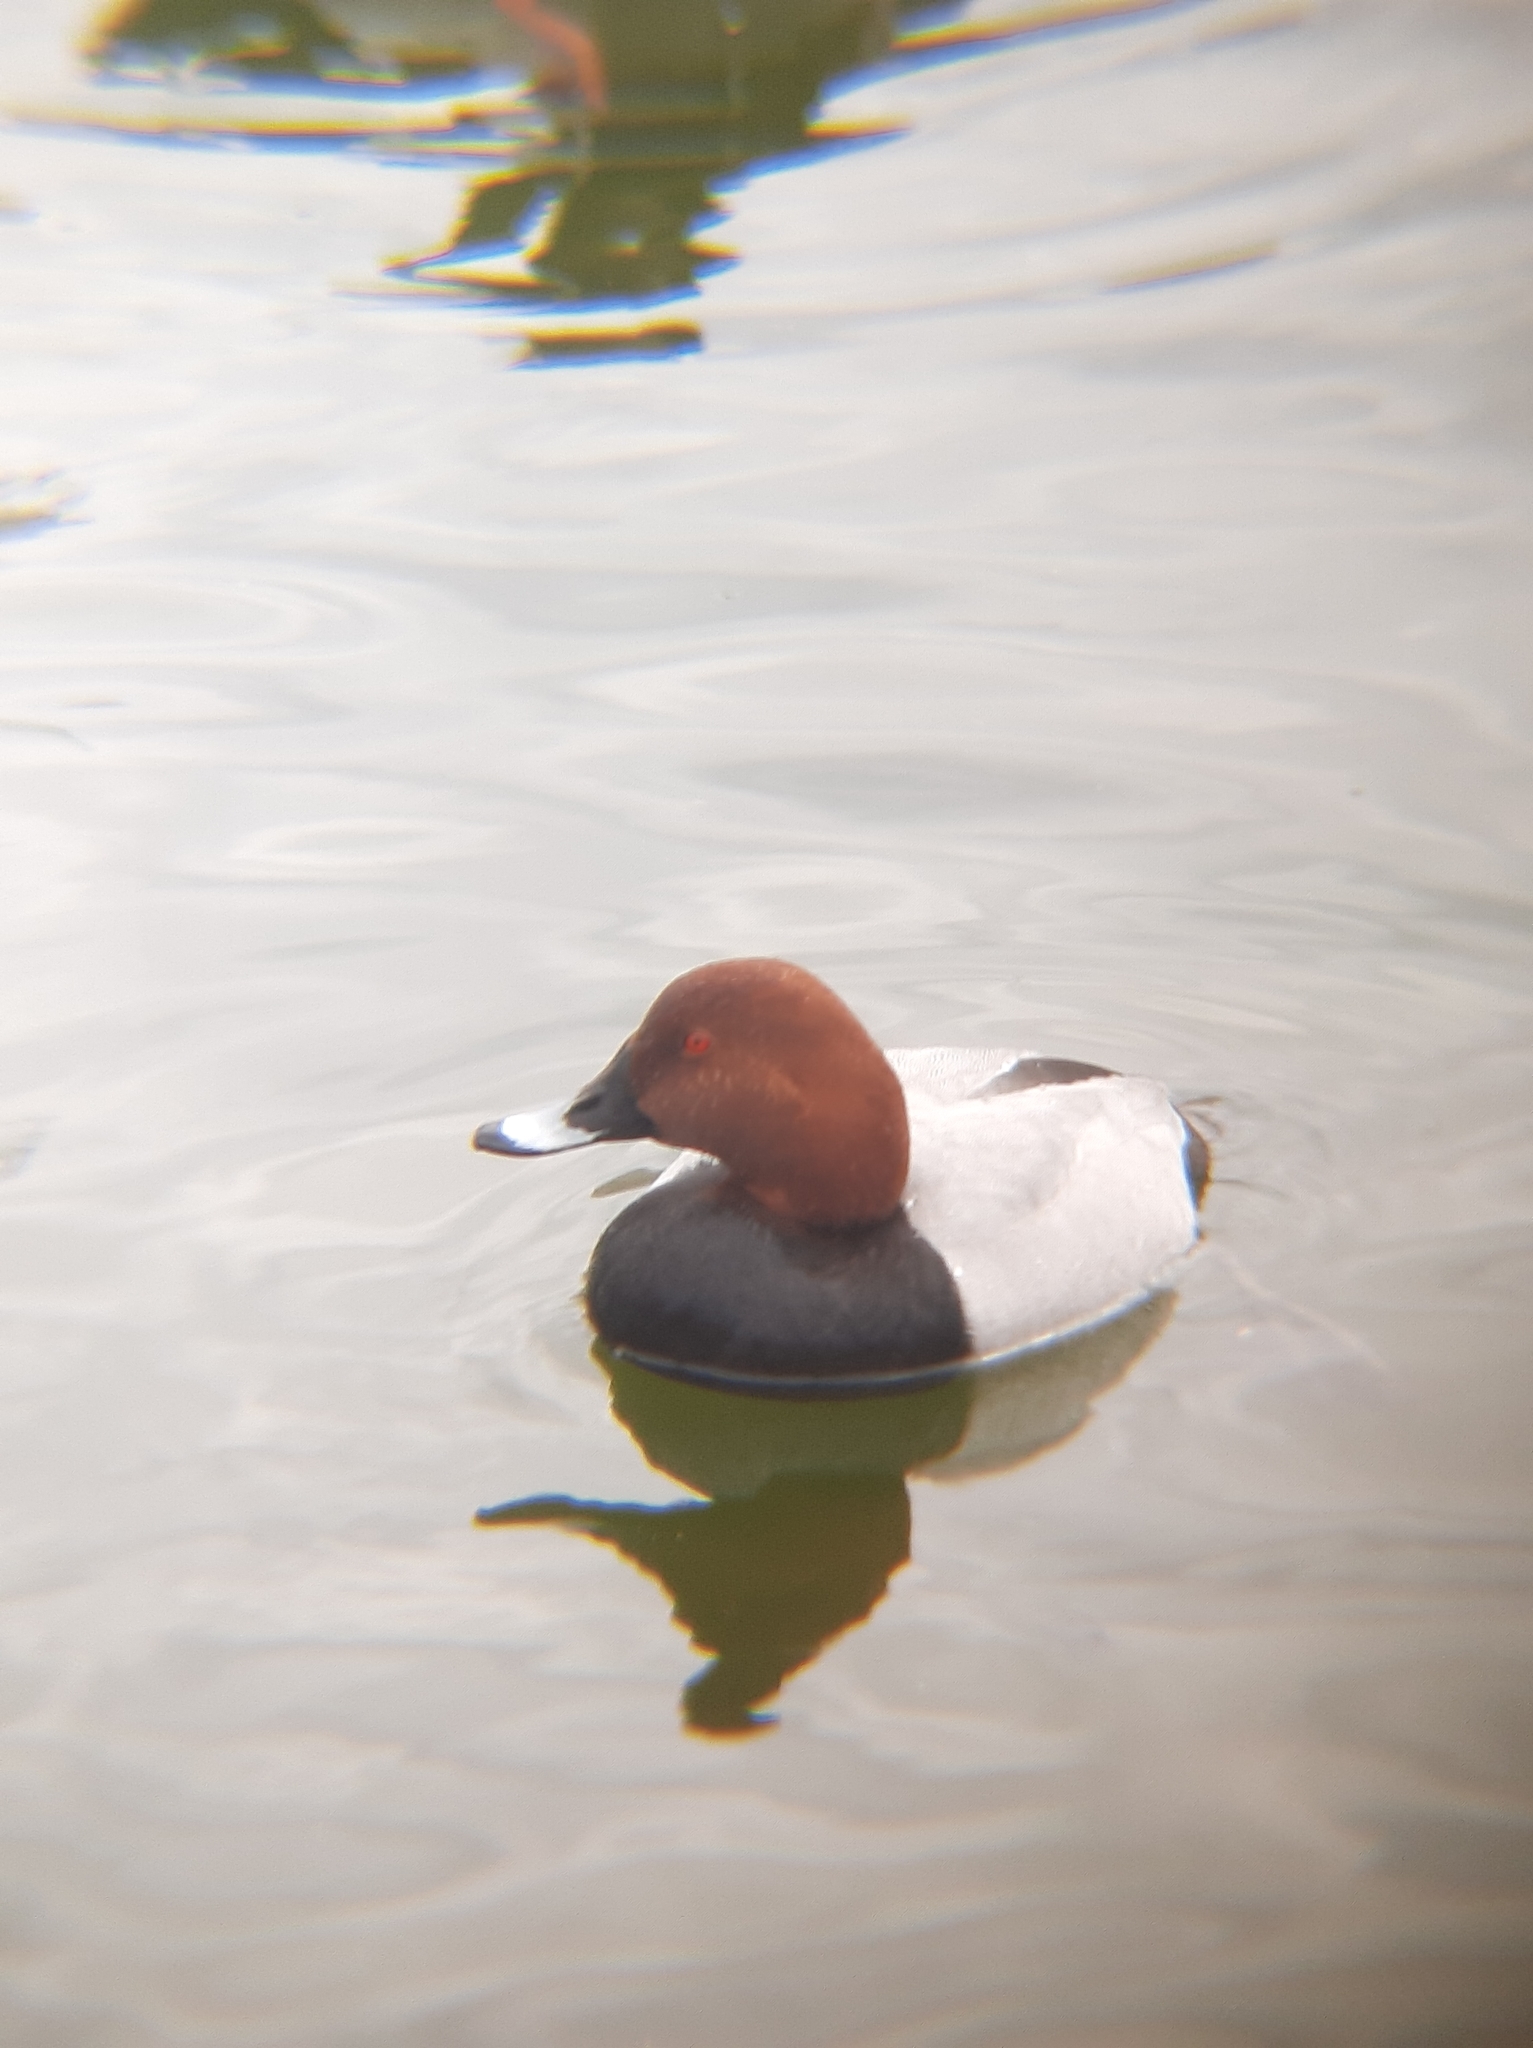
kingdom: Animalia
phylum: Chordata
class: Aves
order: Anseriformes
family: Anatidae
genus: Aythya
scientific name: Aythya ferina
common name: Common pochard
